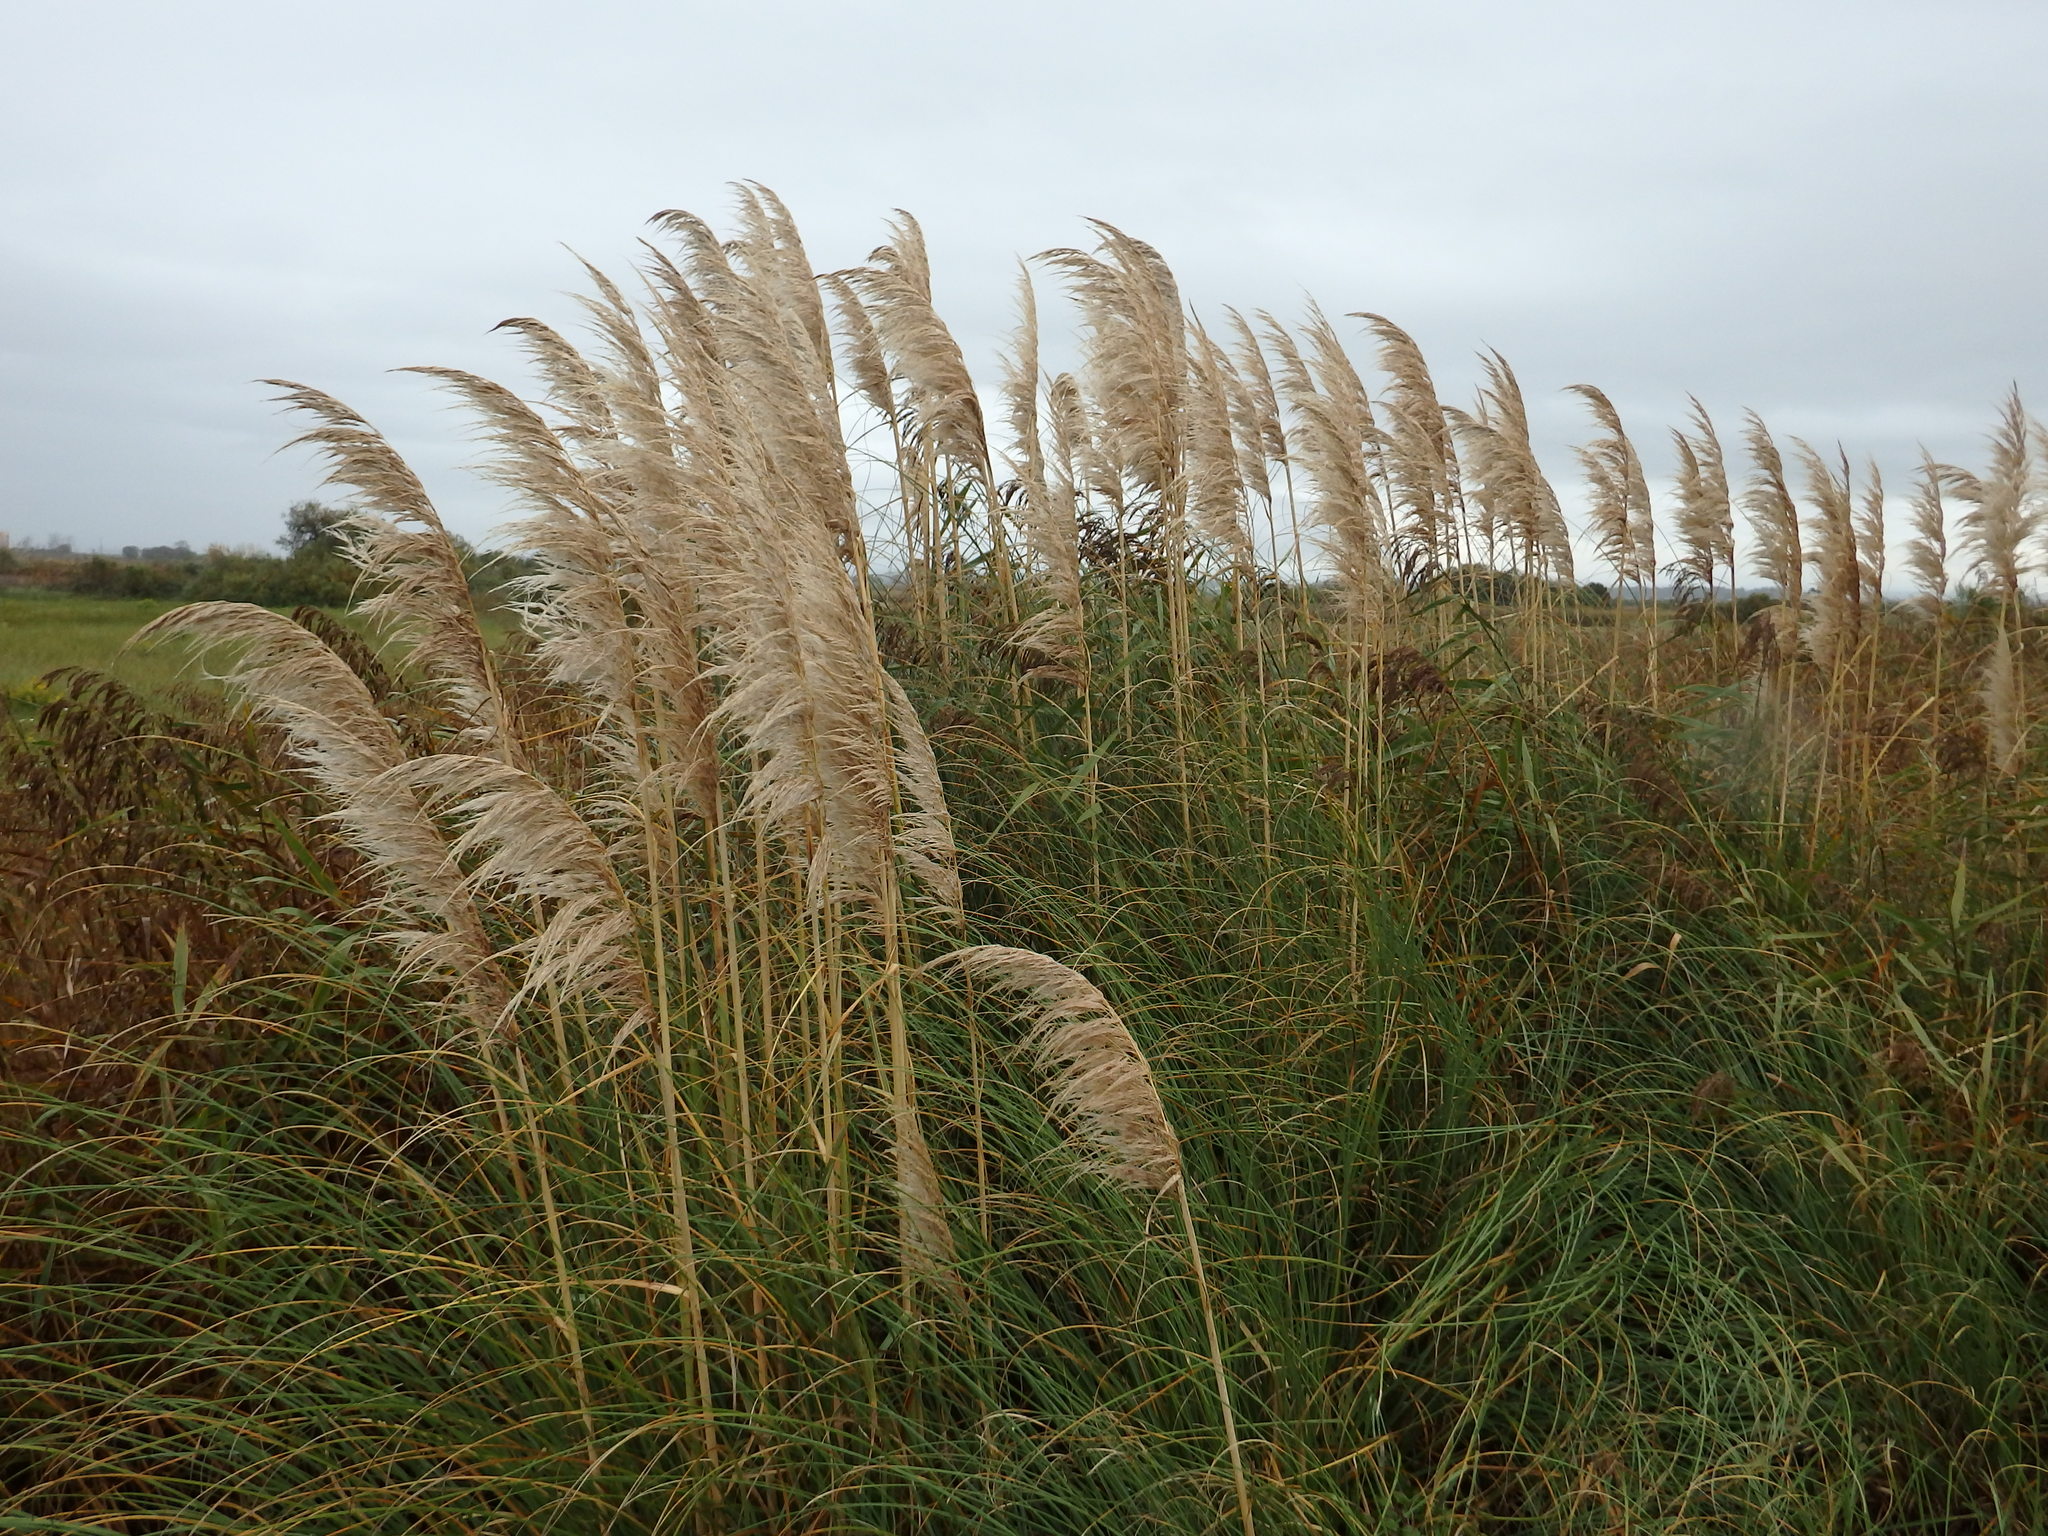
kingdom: Plantae
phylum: Tracheophyta
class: Liliopsida
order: Poales
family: Poaceae
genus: Cortaderia
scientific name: Cortaderia selloana
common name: Uruguayan pampas grass
